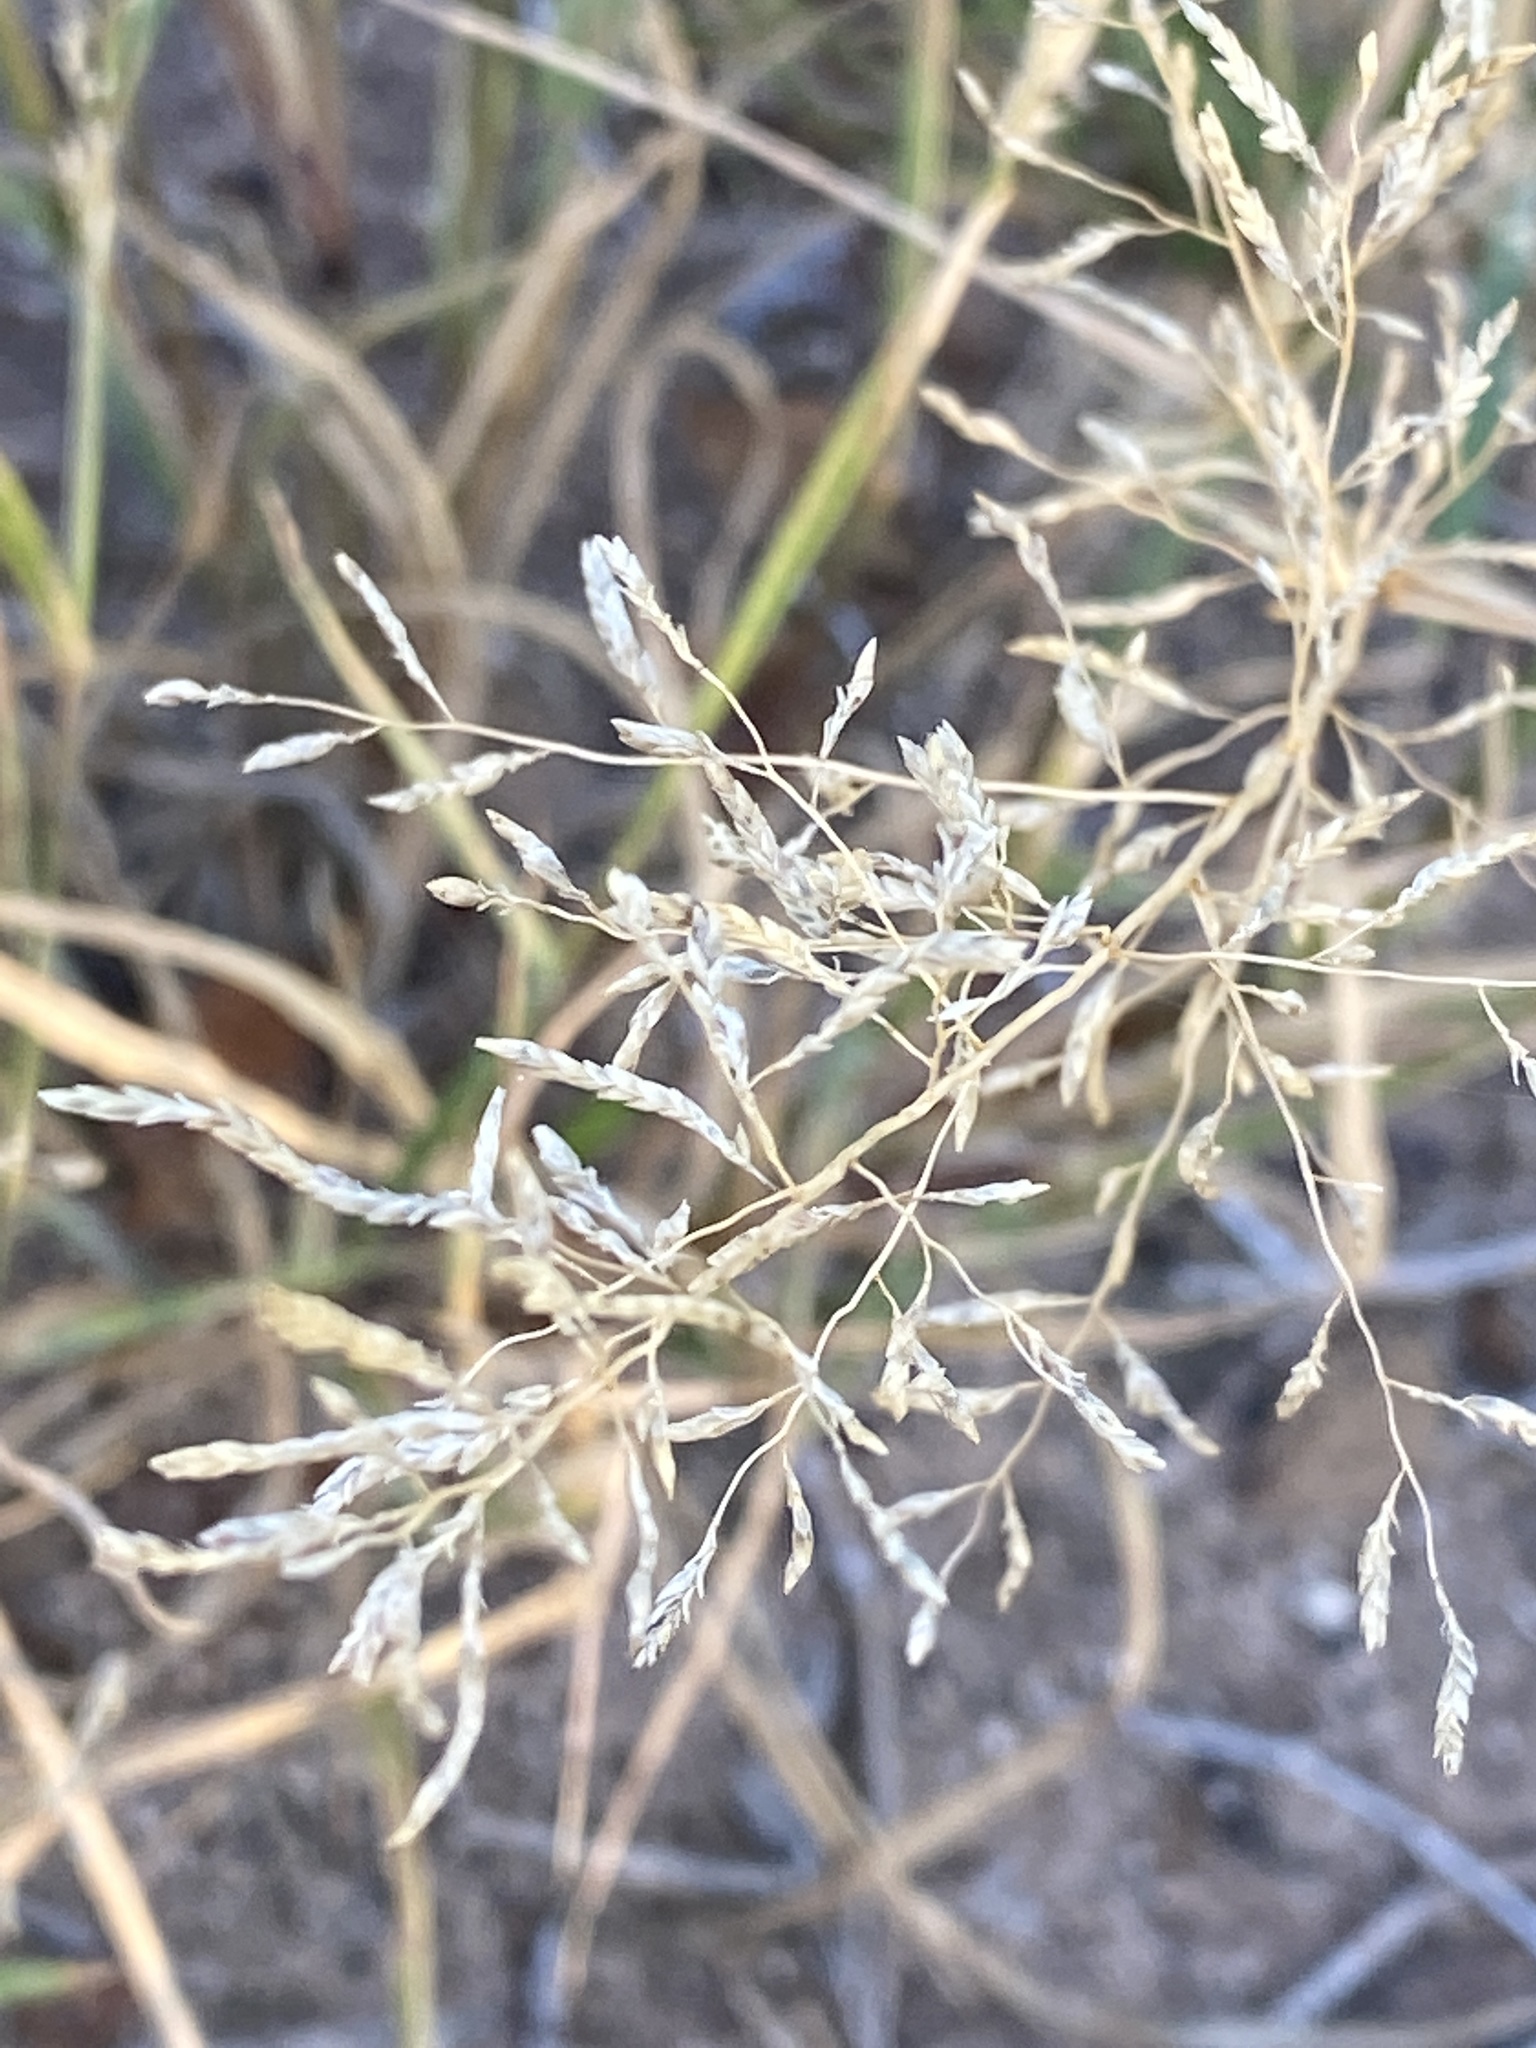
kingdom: Plantae
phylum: Tracheophyta
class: Liliopsida
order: Poales
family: Poaceae
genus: Eragrostis
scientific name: Eragrostis lehmanniana
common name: Lehmann lovegrass
